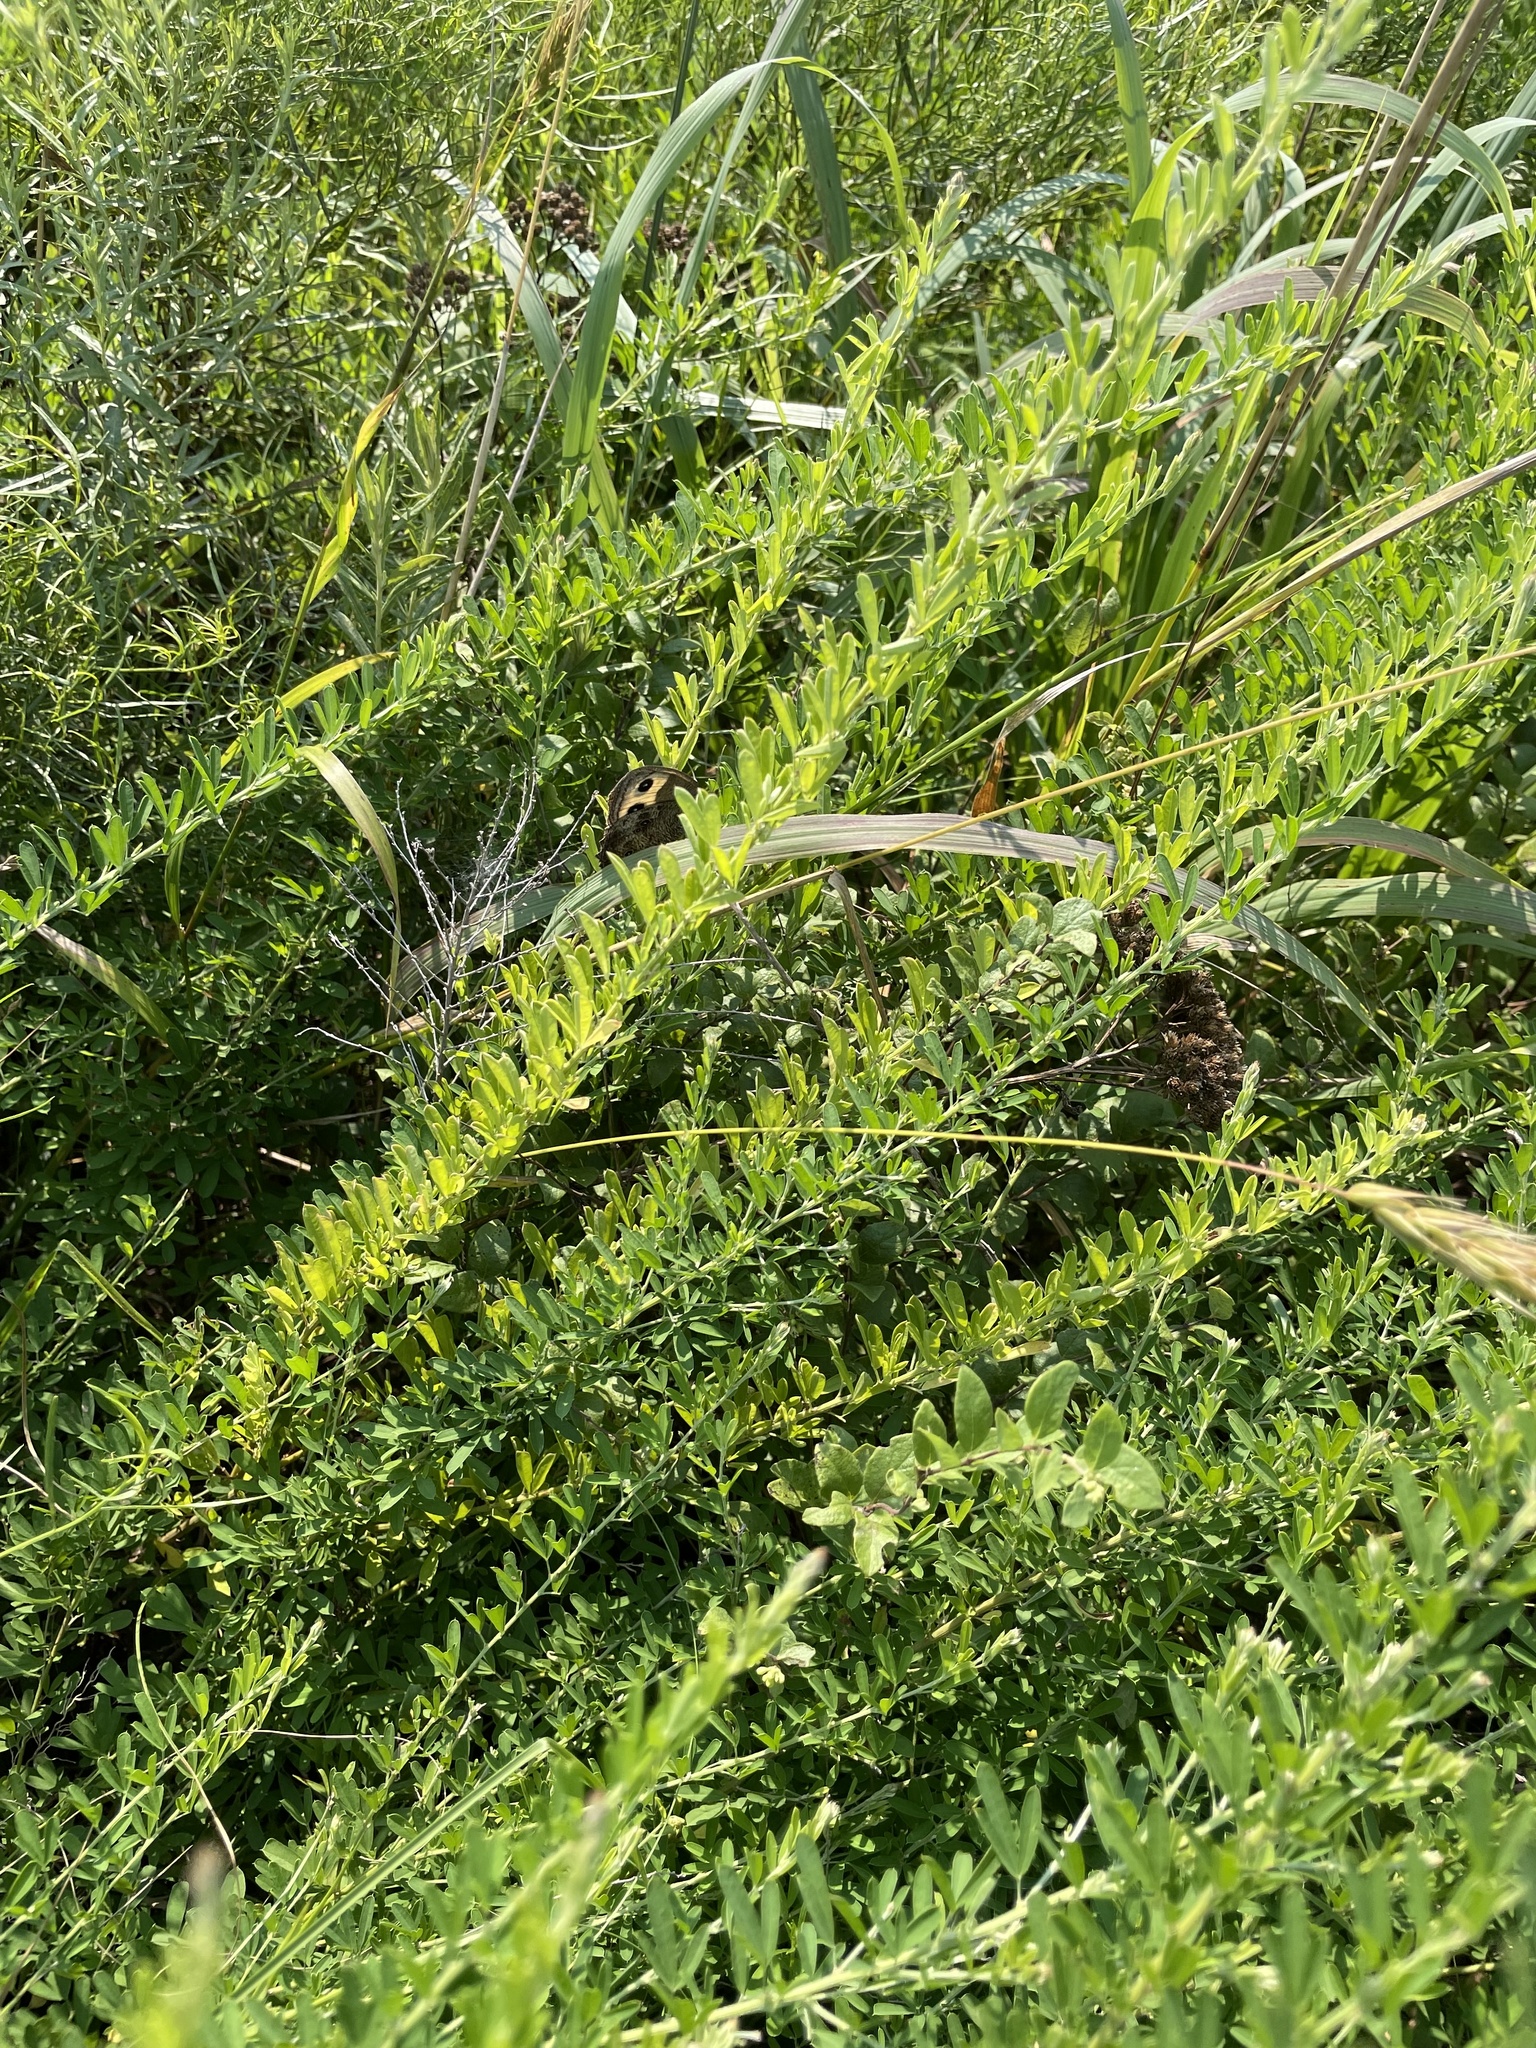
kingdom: Animalia
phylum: Arthropoda
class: Insecta
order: Lepidoptera
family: Nymphalidae
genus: Cercyonis
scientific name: Cercyonis pegala
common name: Common wood-nymph
